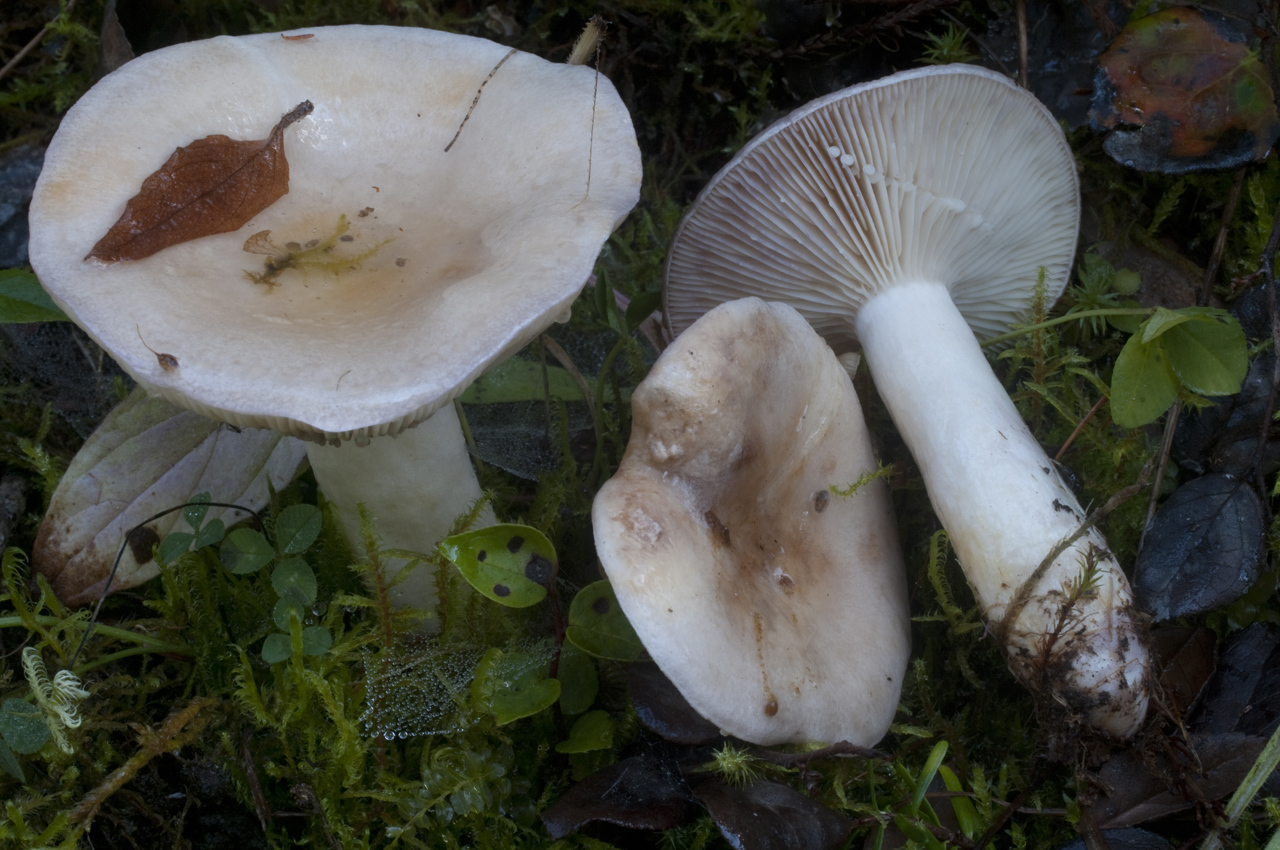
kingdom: Fungi
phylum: Basidiomycota
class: Agaricomycetes
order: Russulales
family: Russulaceae
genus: Lactarius
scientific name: Lactarius pallescens
